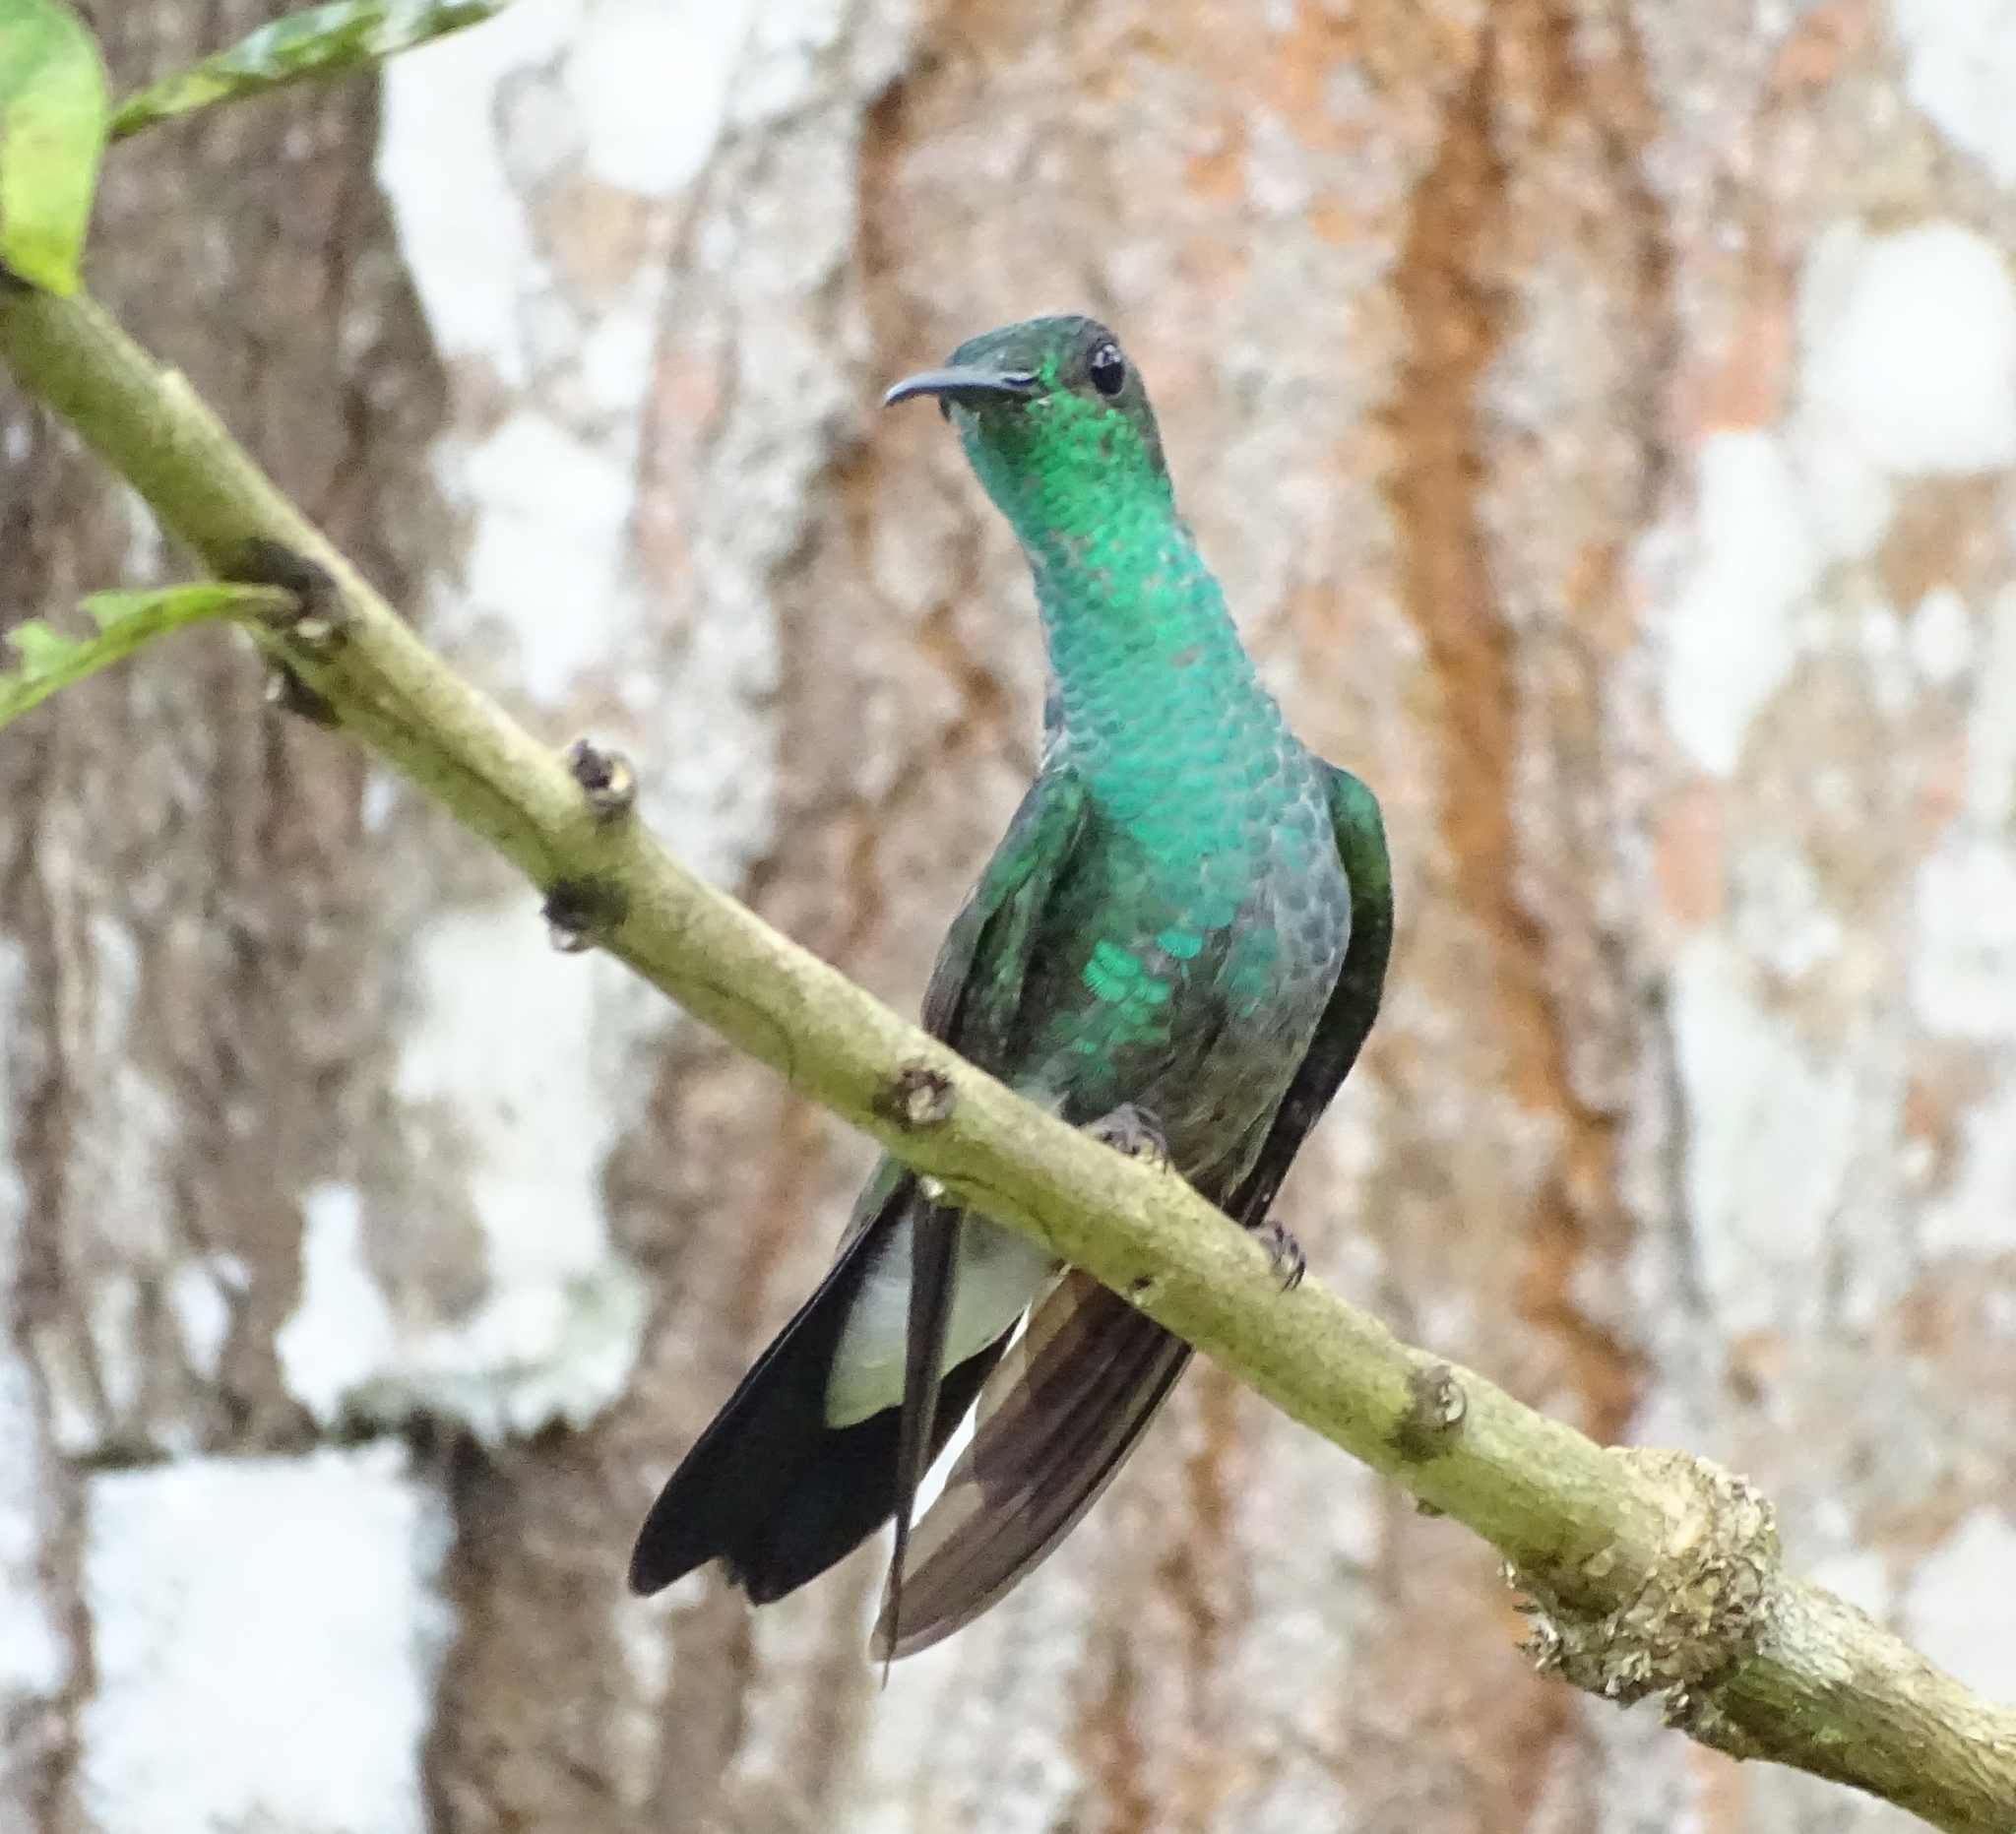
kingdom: Animalia
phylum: Chordata
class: Aves
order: Apodiformes
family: Trochilidae
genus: Chalybura
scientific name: Chalybura buffonii
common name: White-vented plumeleteer
